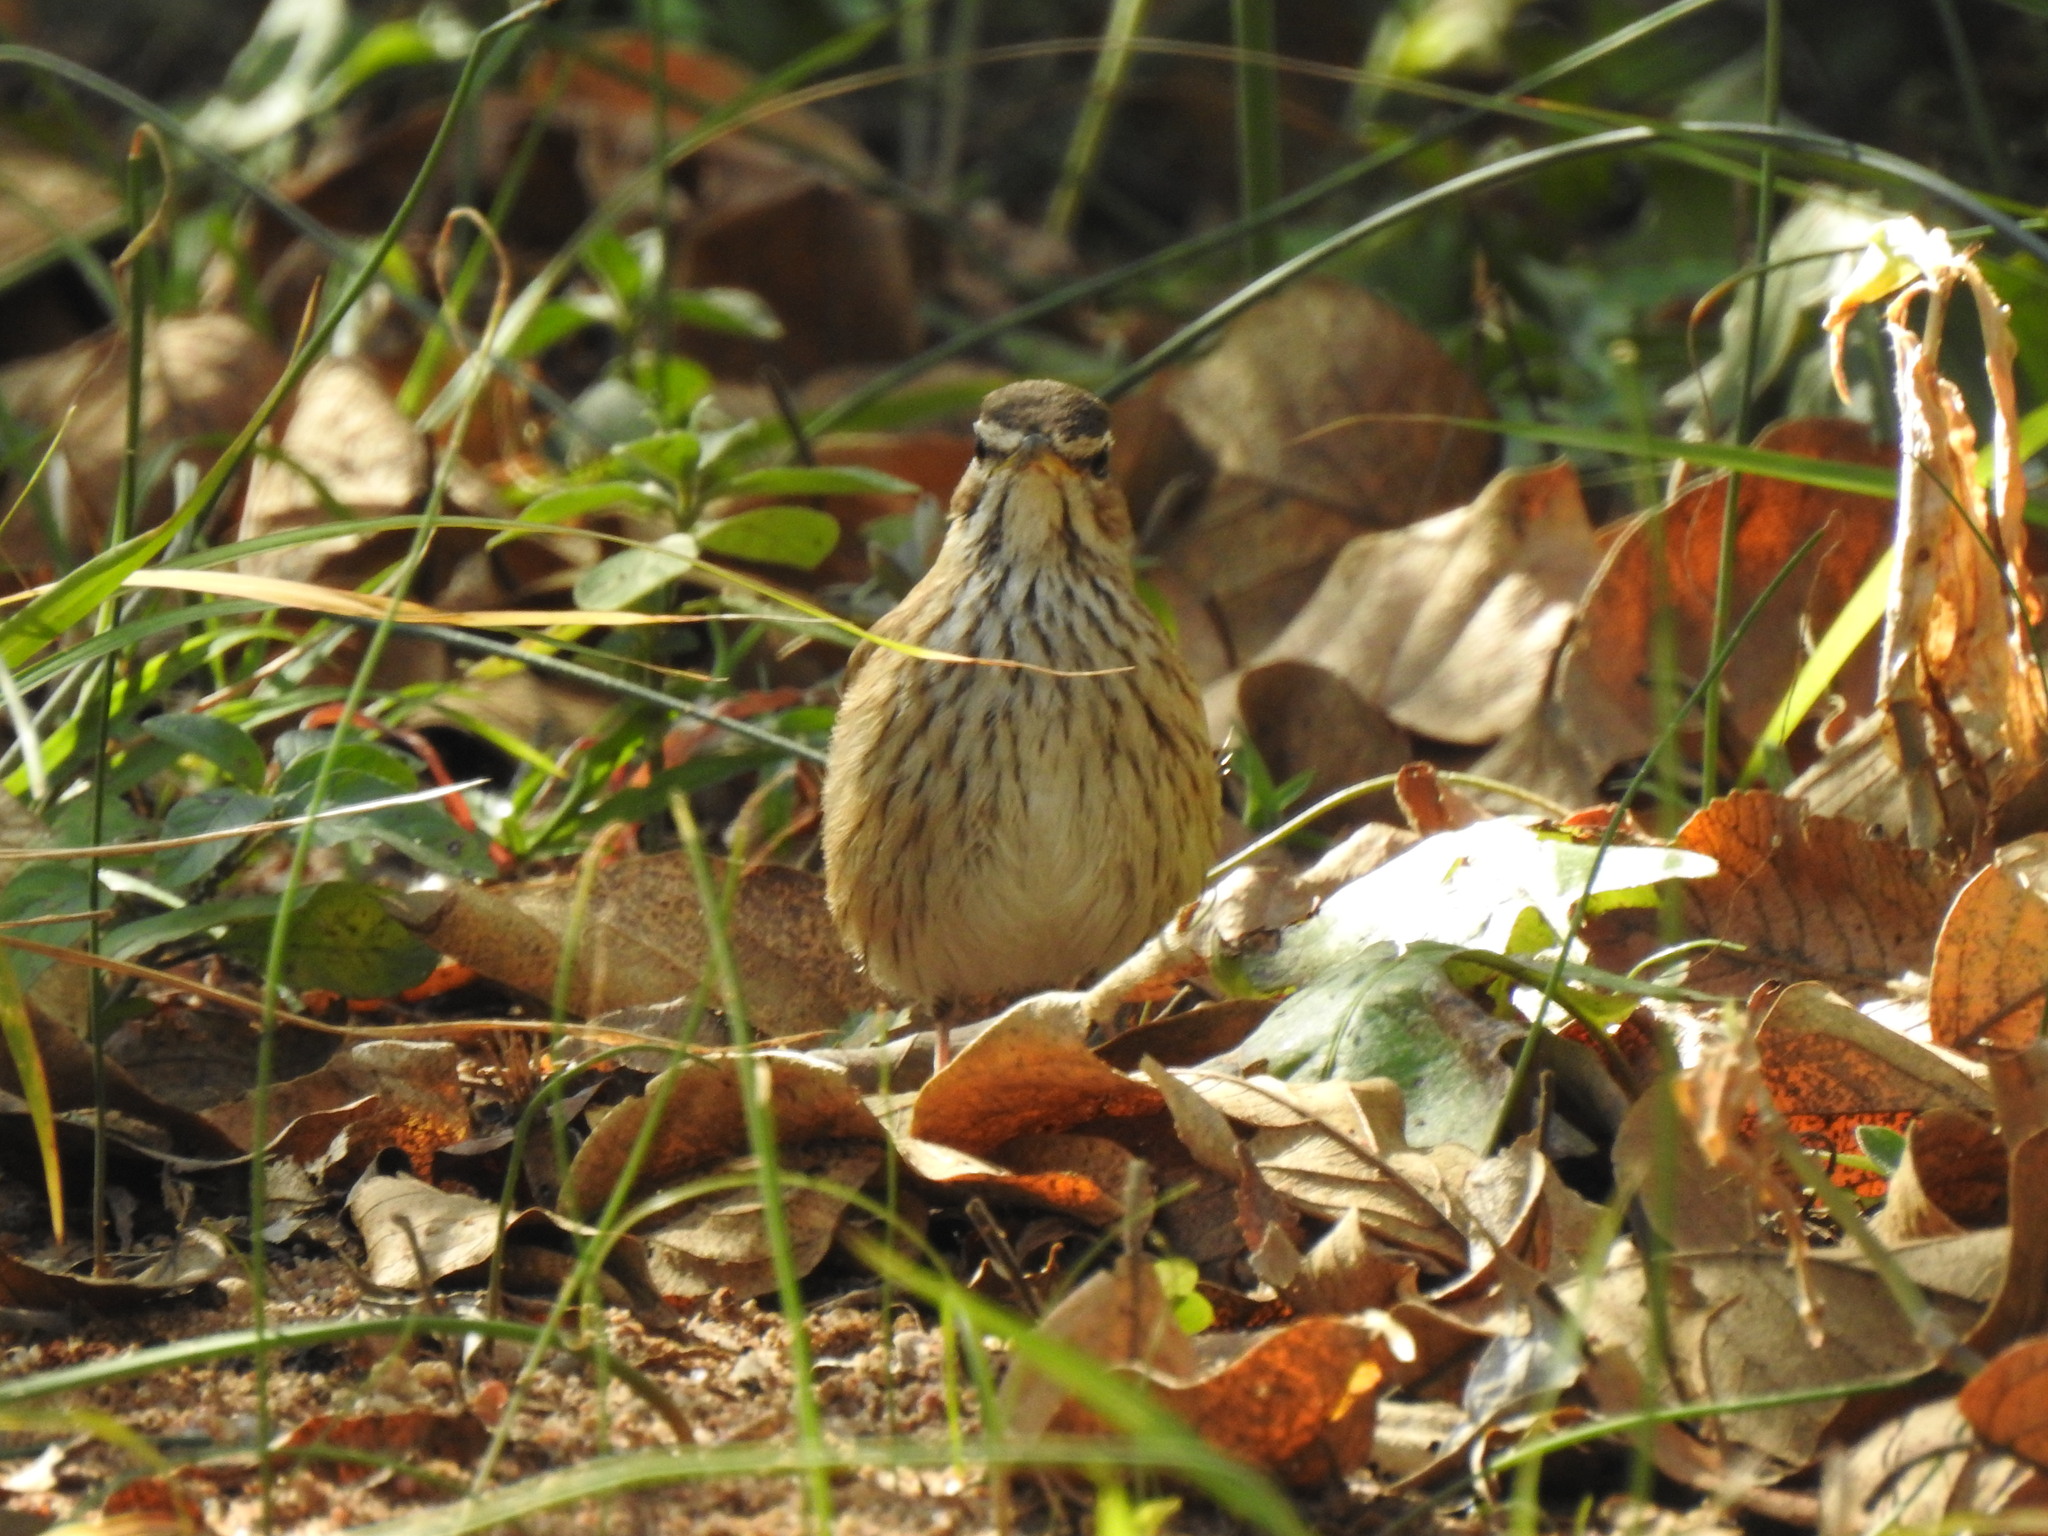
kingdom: Animalia
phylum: Chordata
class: Aves
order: Passeriformes
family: Muscicapidae
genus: Erythropygia
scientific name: Erythropygia leucophrys
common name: White-browed scrub robin
